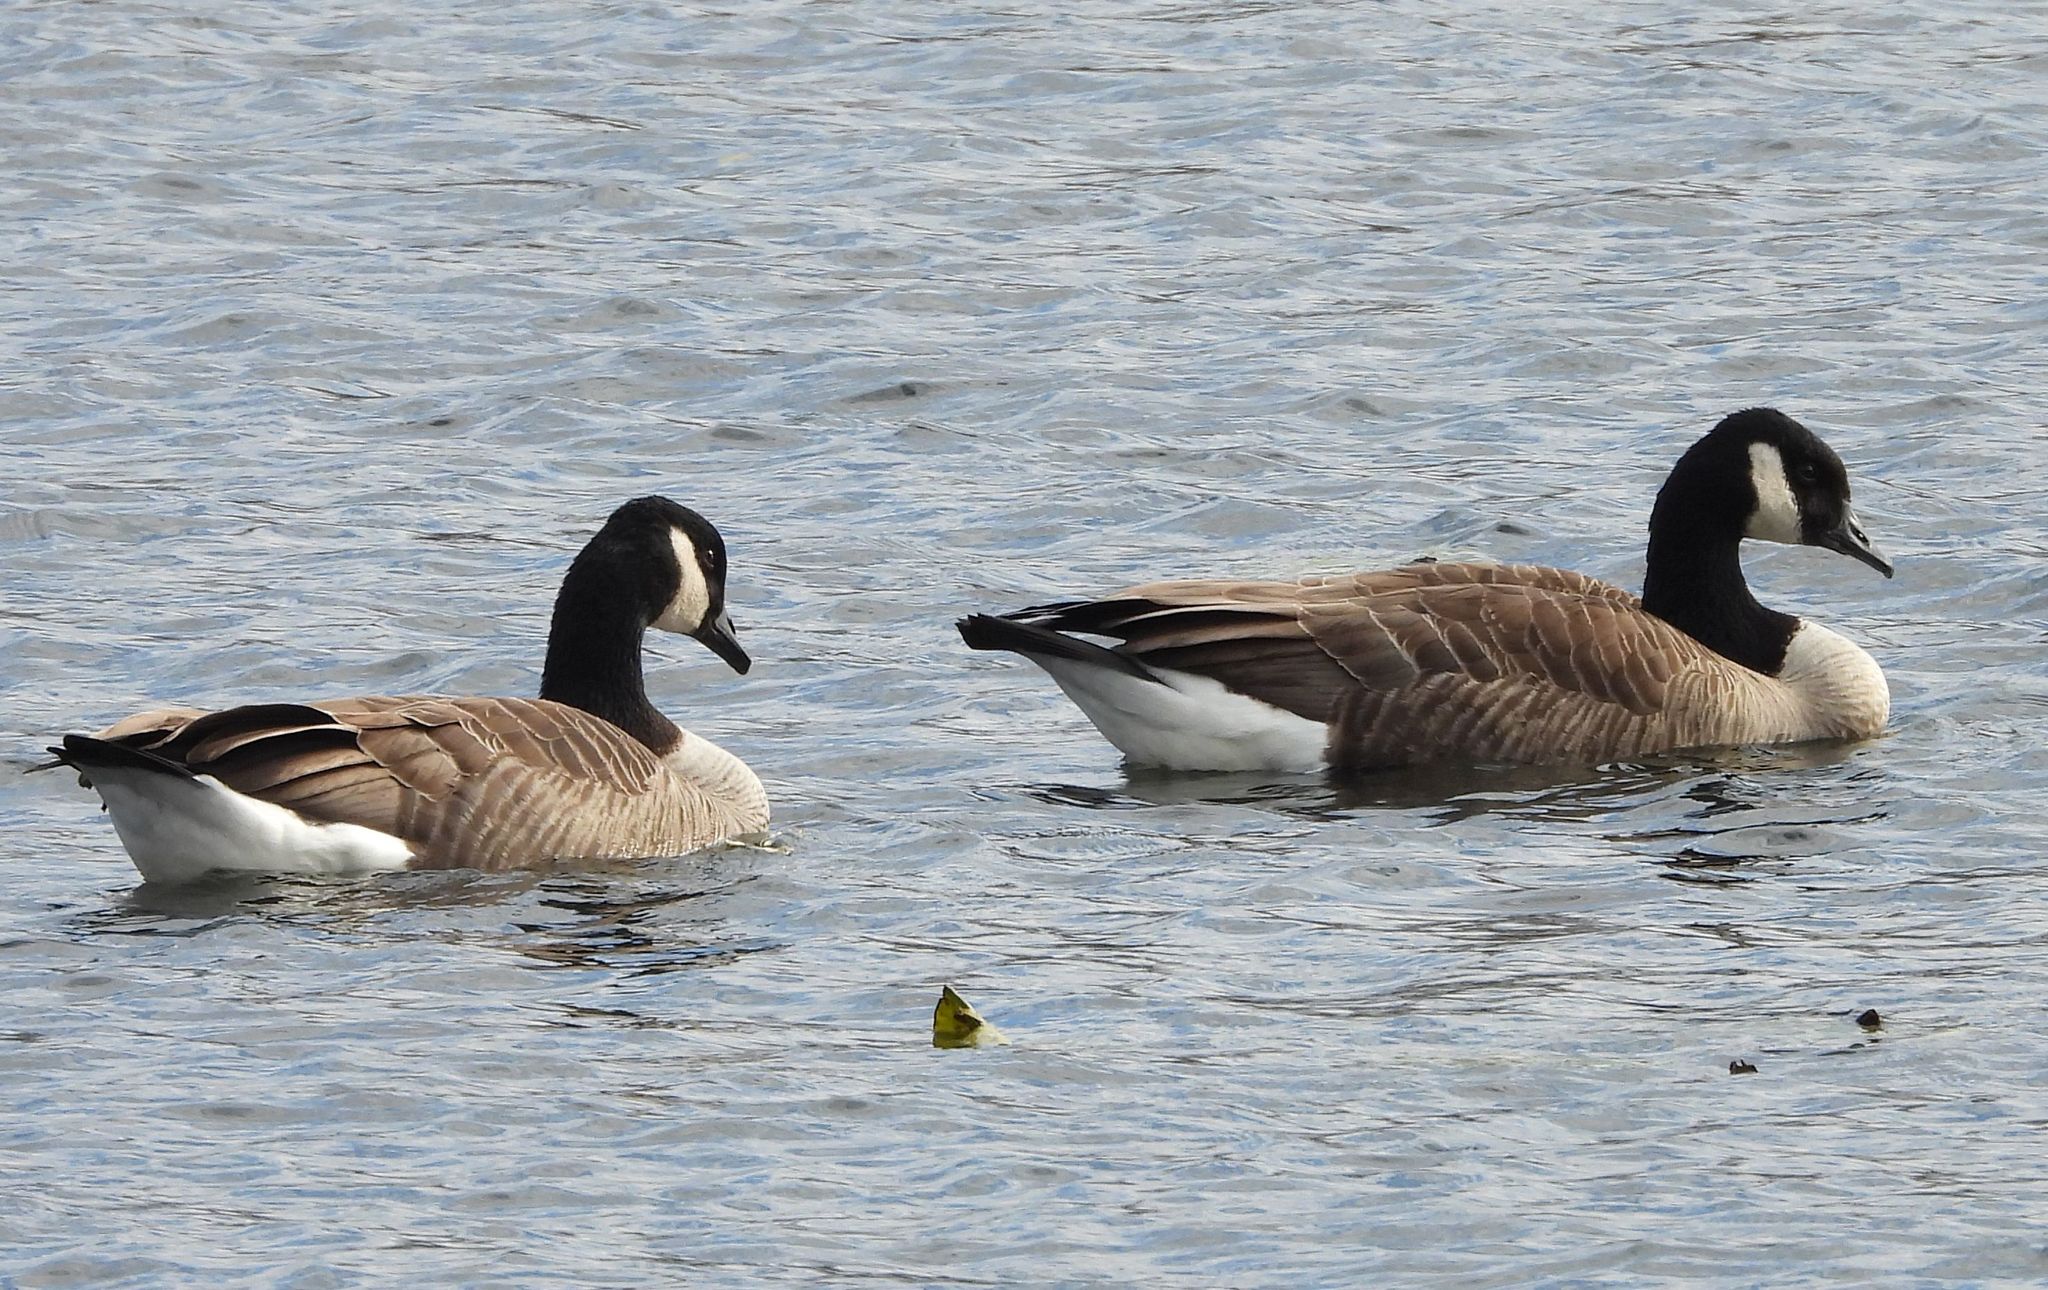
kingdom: Animalia
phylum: Chordata
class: Aves
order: Anseriformes
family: Anatidae
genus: Branta
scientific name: Branta canadensis
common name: Canada goose
